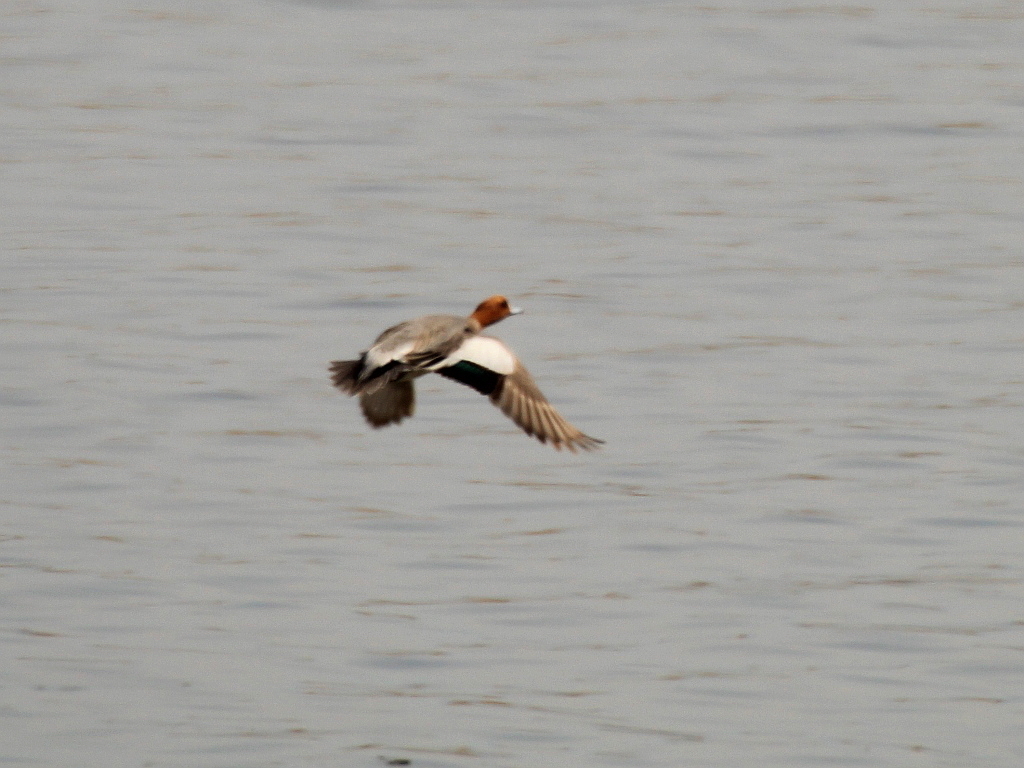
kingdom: Animalia
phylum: Chordata
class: Aves
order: Anseriformes
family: Anatidae
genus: Mareca
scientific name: Mareca penelope
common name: Eurasian wigeon
